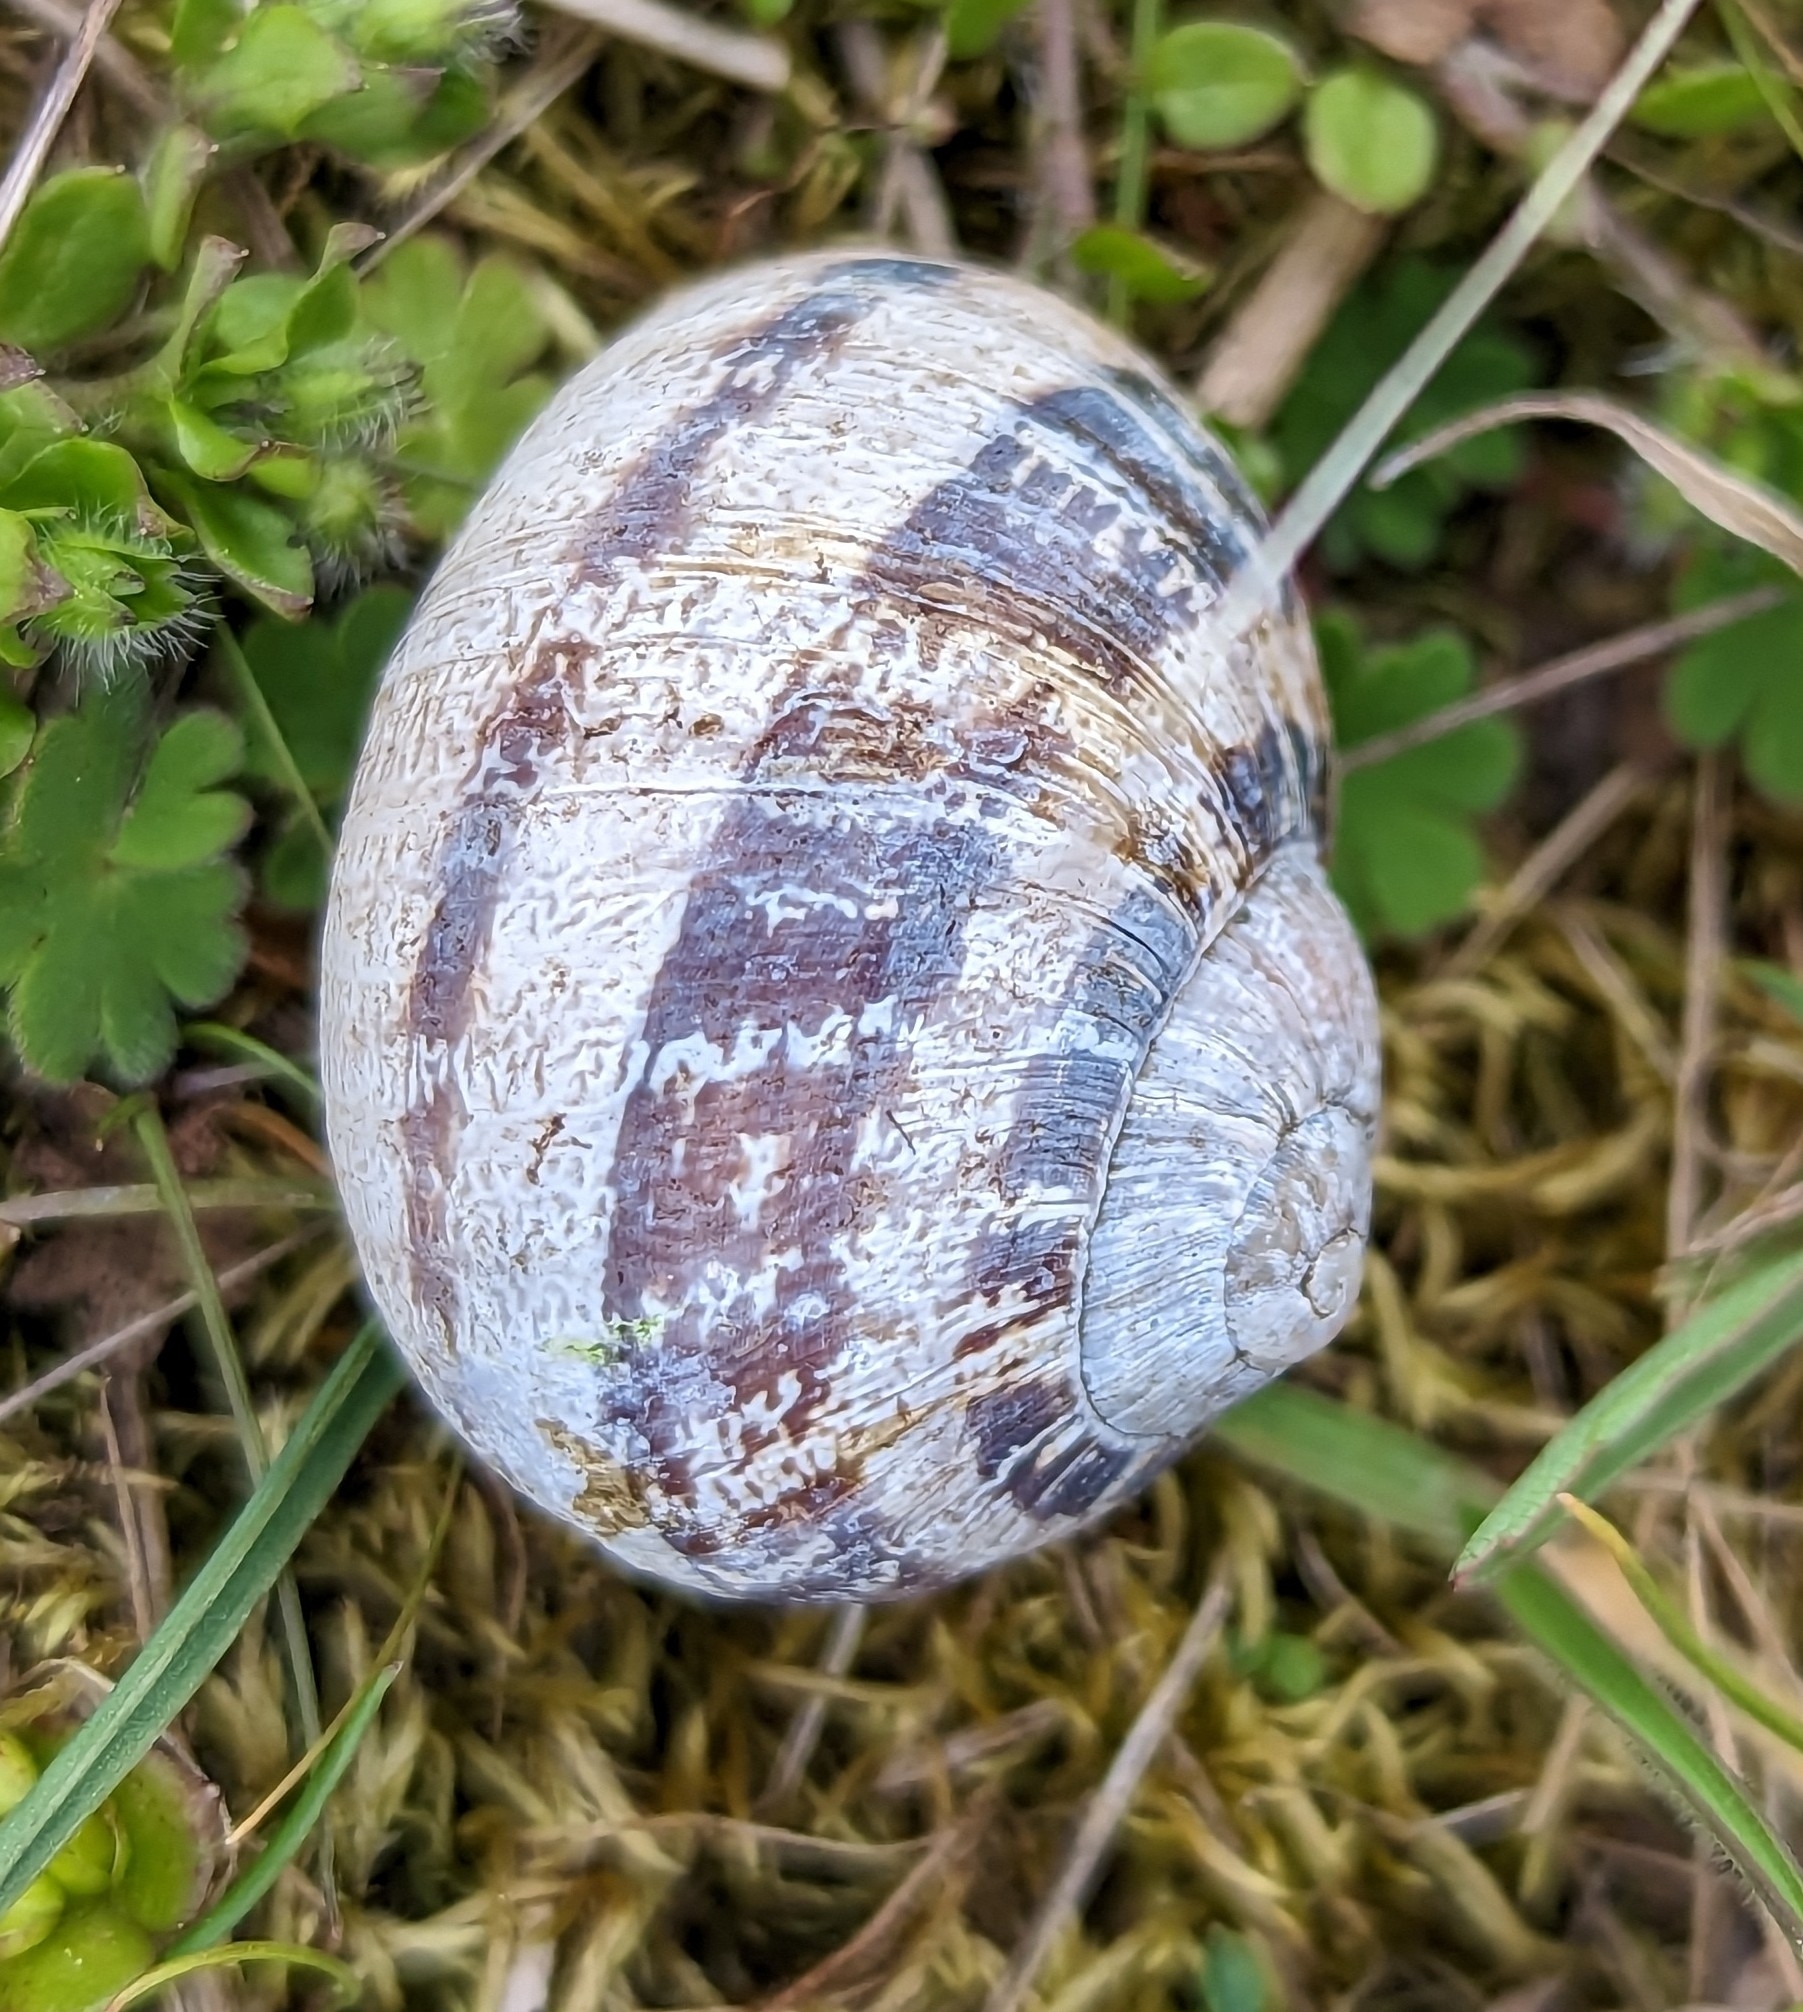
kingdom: Animalia
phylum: Mollusca
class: Gastropoda
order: Stylommatophora
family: Helicidae
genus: Cornu
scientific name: Cornu aspersum
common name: Brown garden snail
